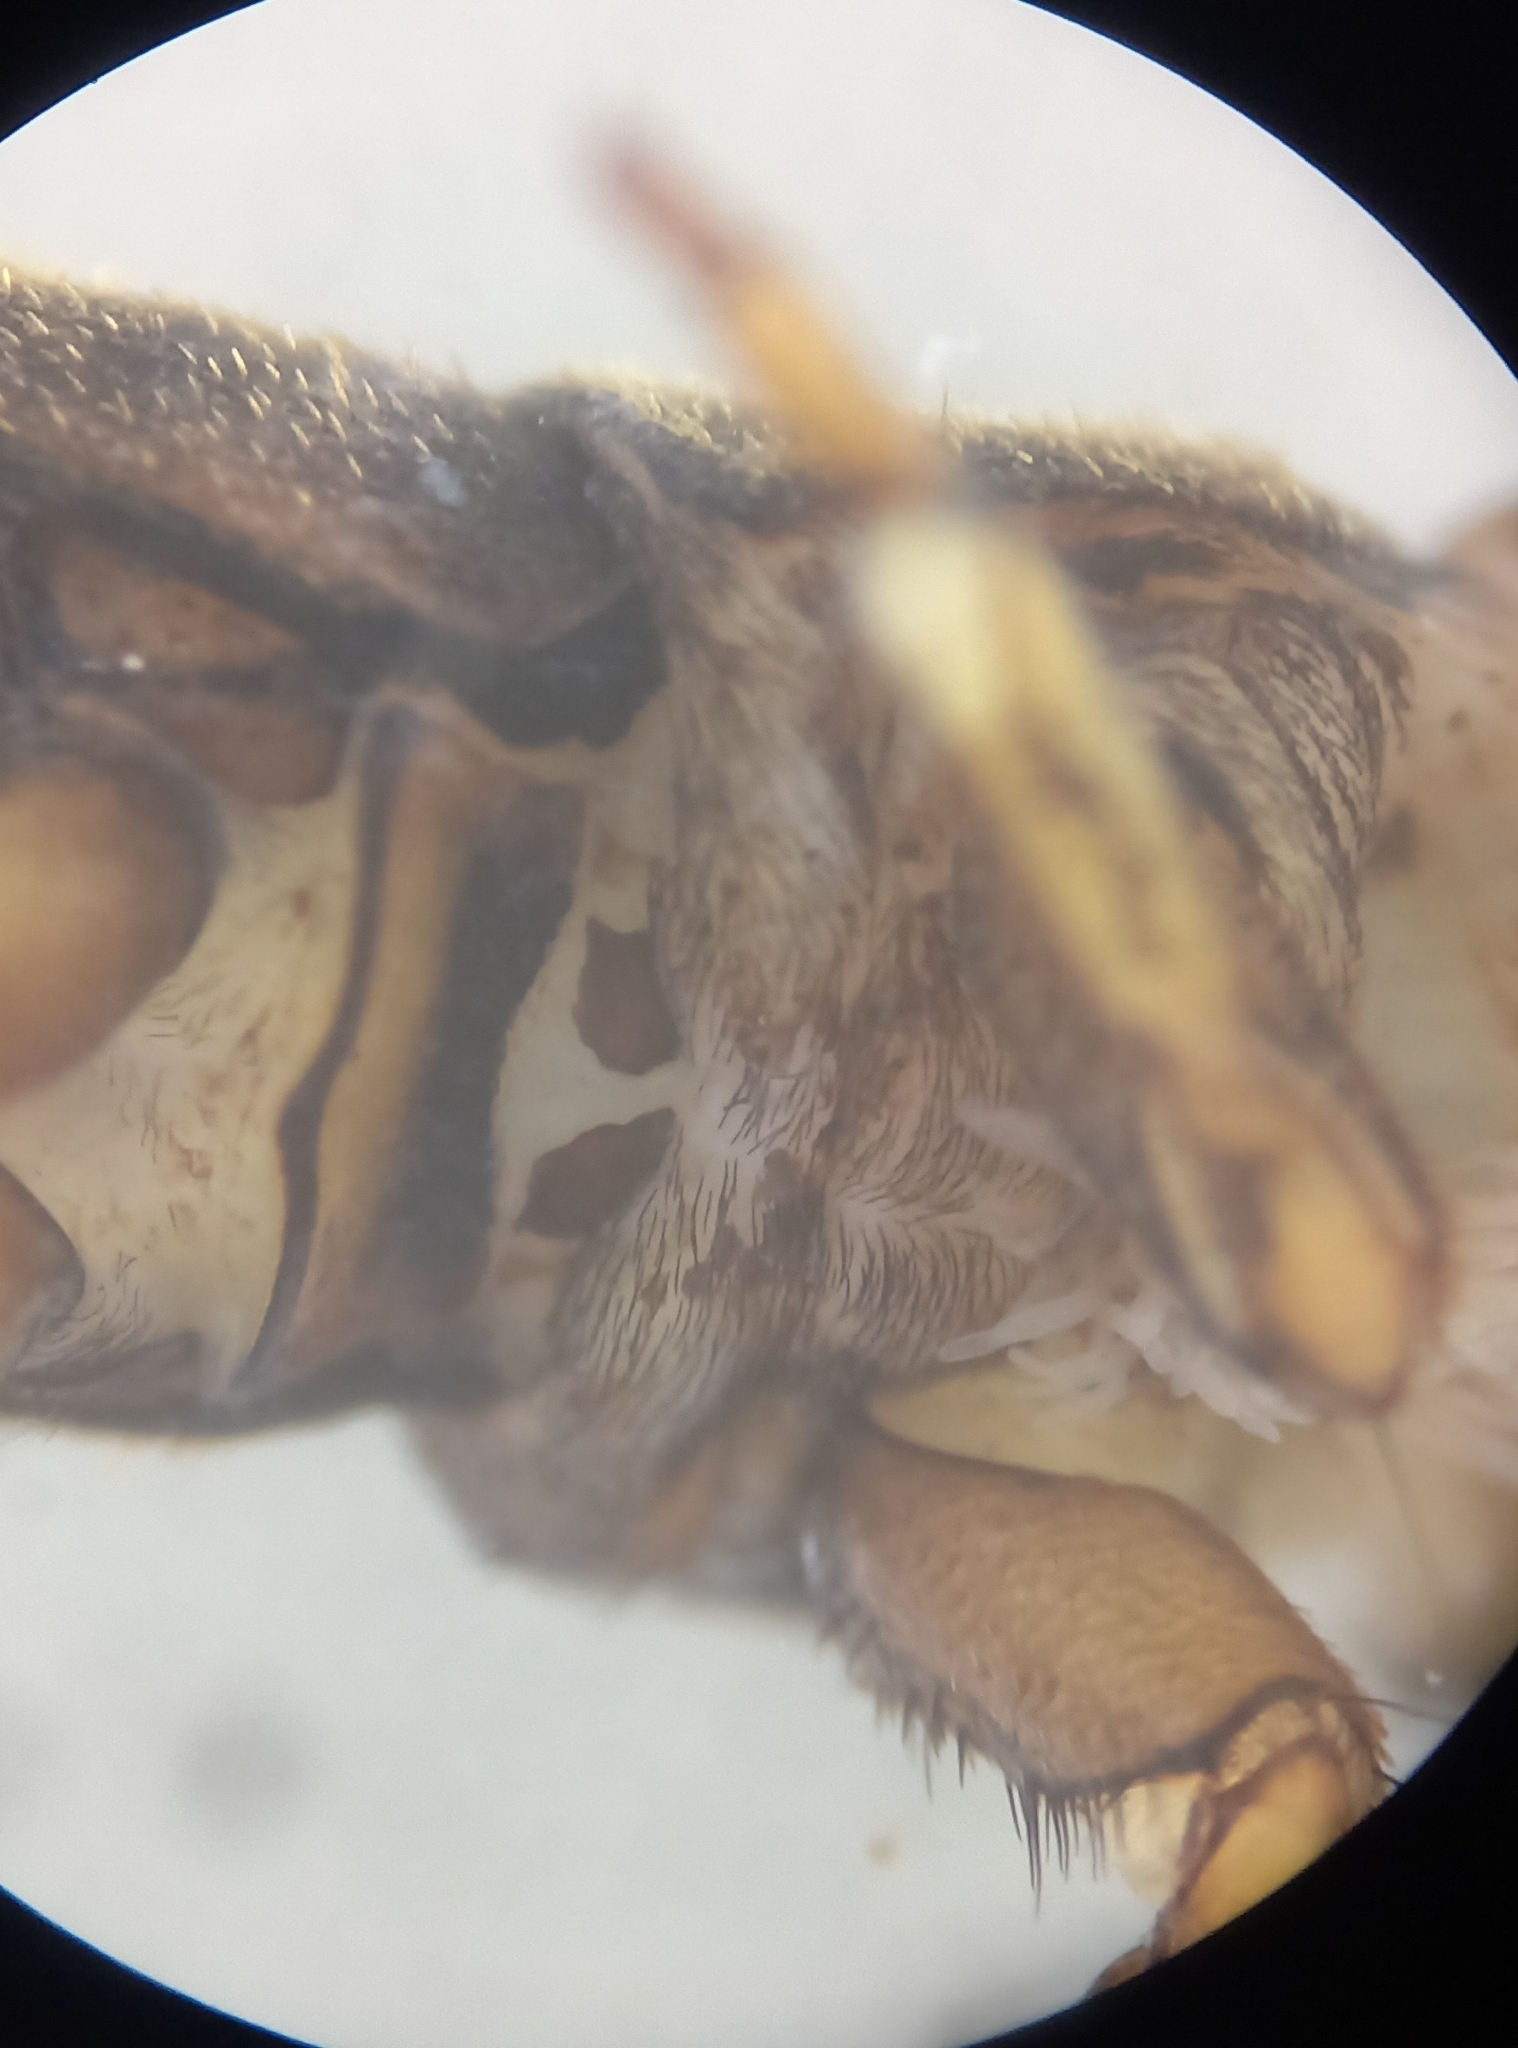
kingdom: Animalia
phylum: Arthropoda
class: Insecta
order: Trichoptera
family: Hydropsychidae
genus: Hydropsyche
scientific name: Hydropsyche pellucidula
